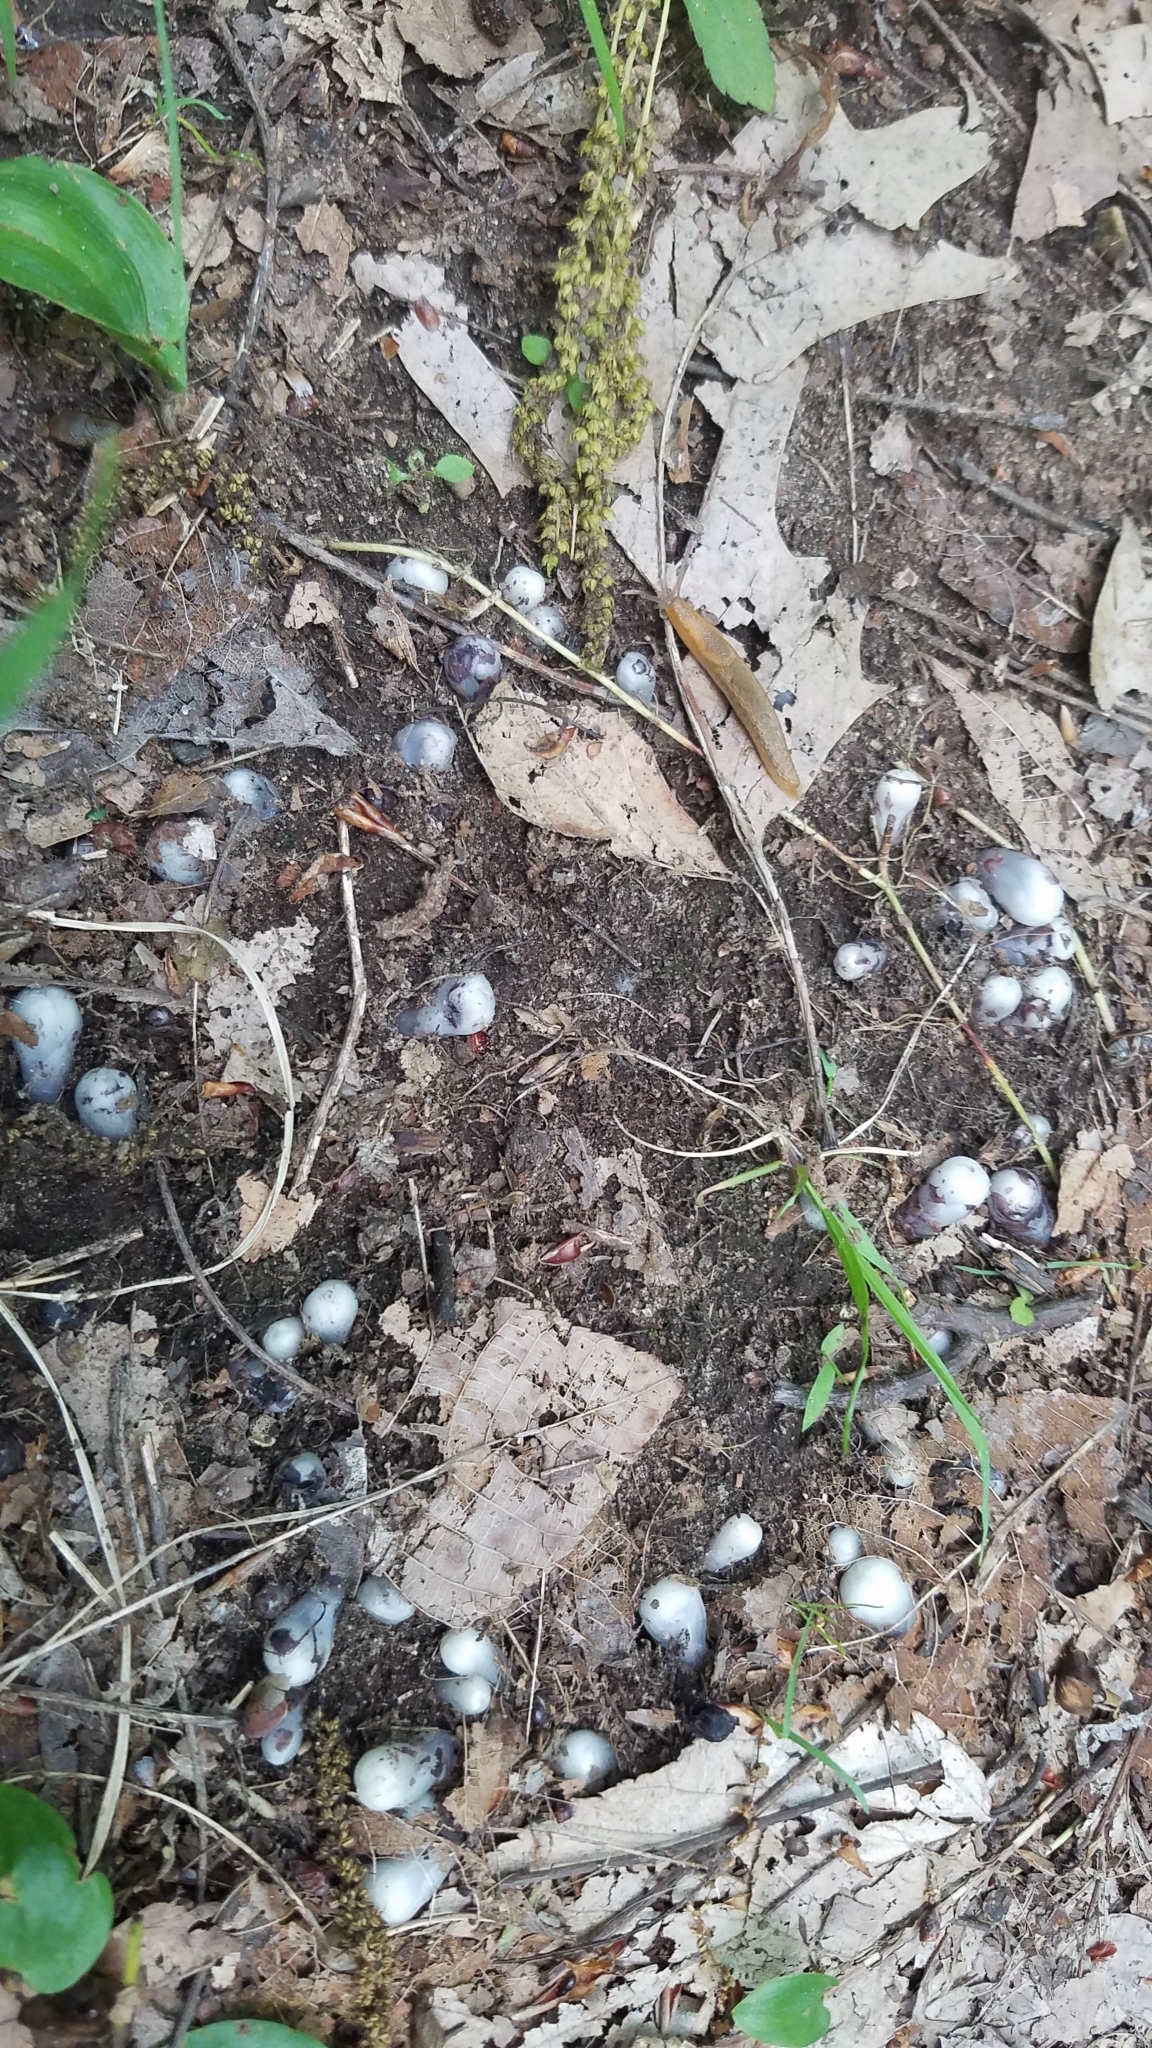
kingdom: Plantae
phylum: Tracheophyta
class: Magnoliopsida
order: Ericales
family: Ericaceae
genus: Monotropa
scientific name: Monotropa uniflora
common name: Convulsion root
